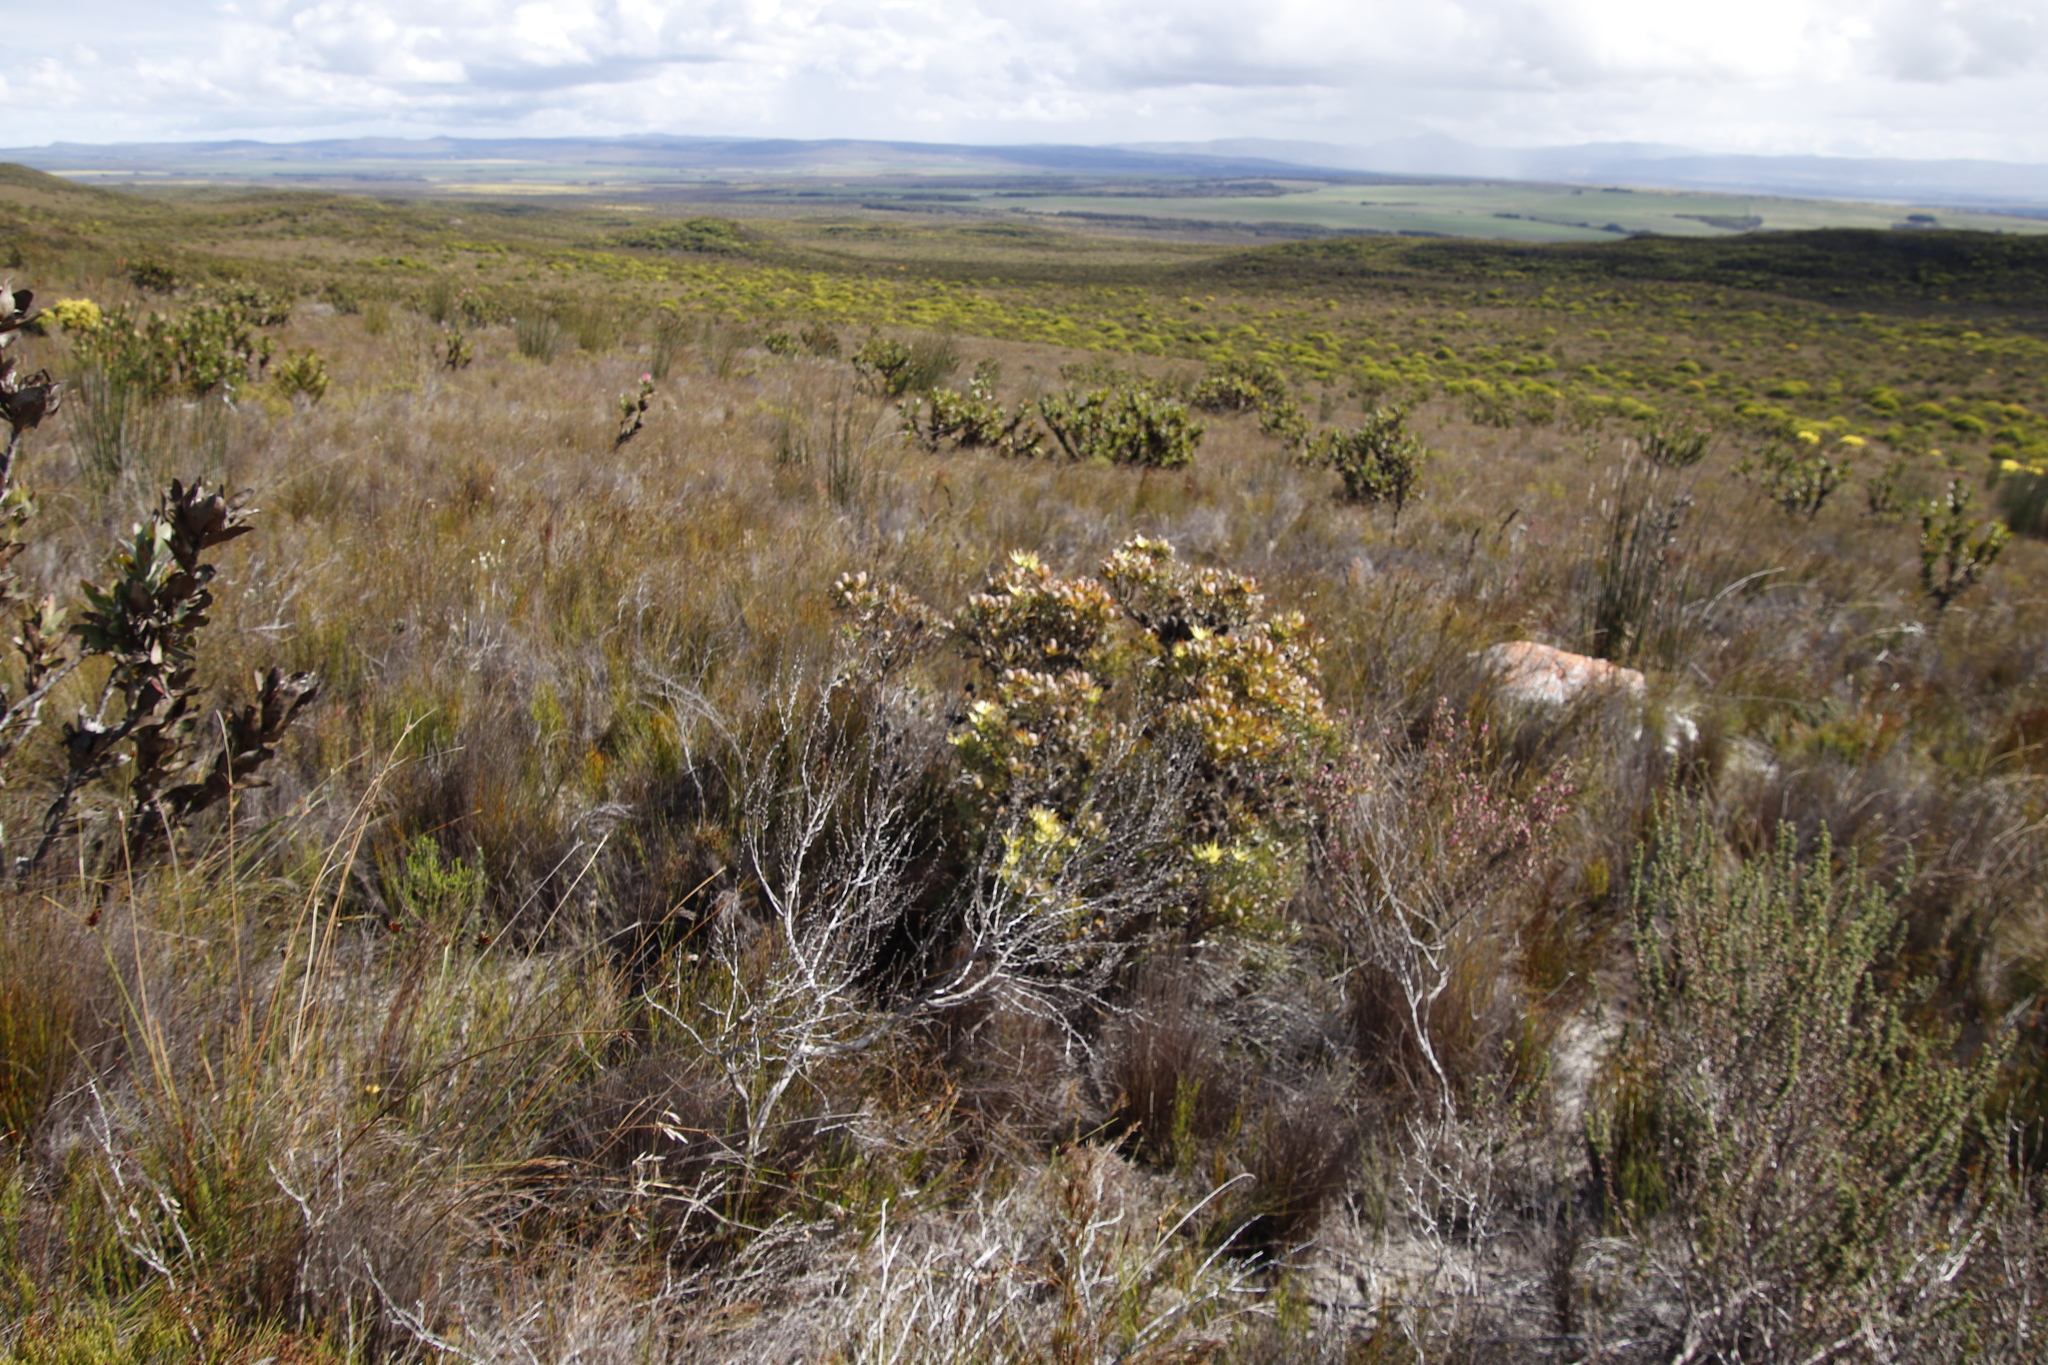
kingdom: Plantae
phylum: Tracheophyta
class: Magnoliopsida
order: Proteales
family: Proteaceae
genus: Leucadendron
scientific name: Leucadendron xanthoconus
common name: Sickle-leaf conebush
